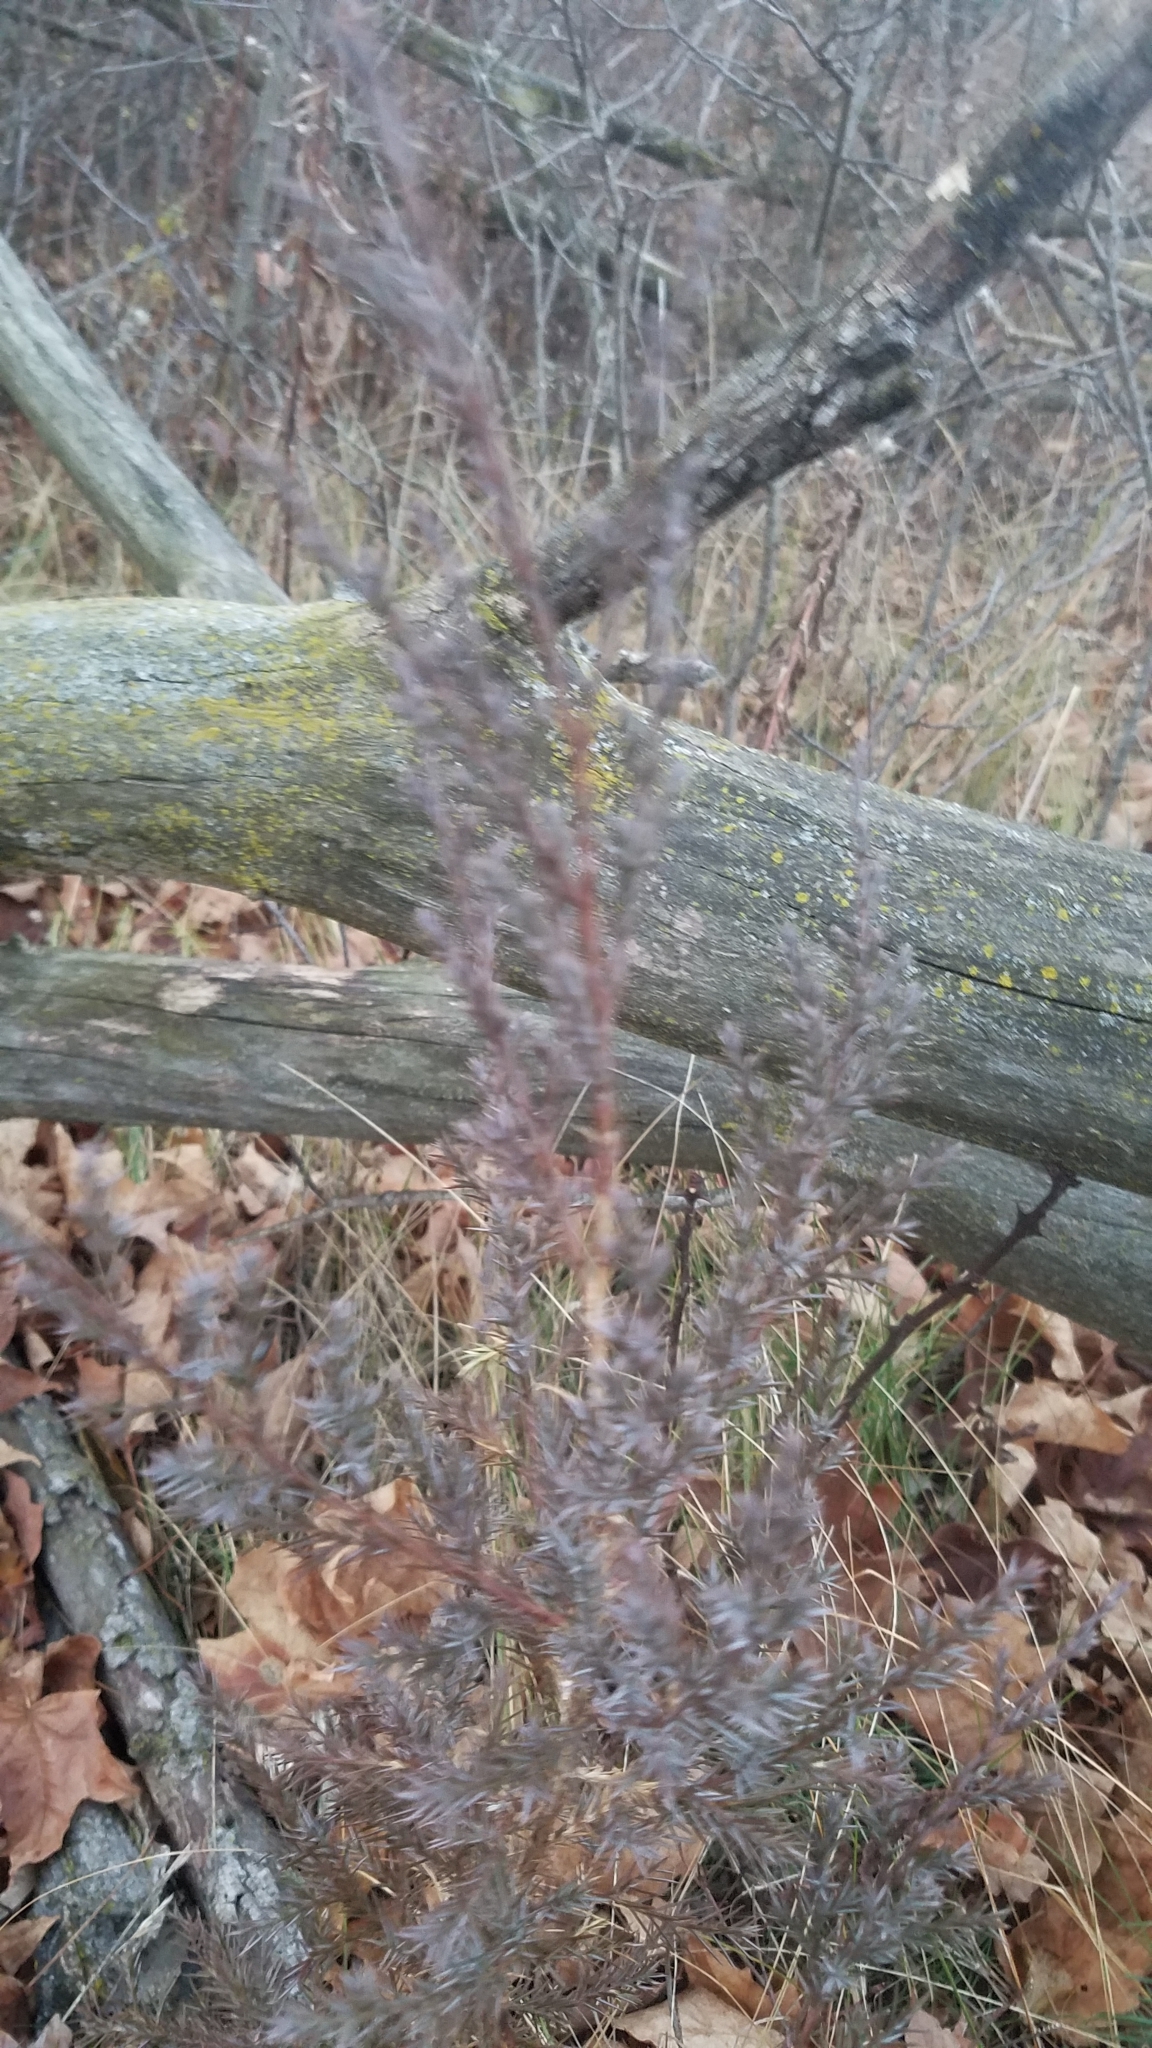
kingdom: Plantae
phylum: Tracheophyta
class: Pinopsida
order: Pinales
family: Cupressaceae
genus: Juniperus
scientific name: Juniperus virginiana
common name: Red juniper
